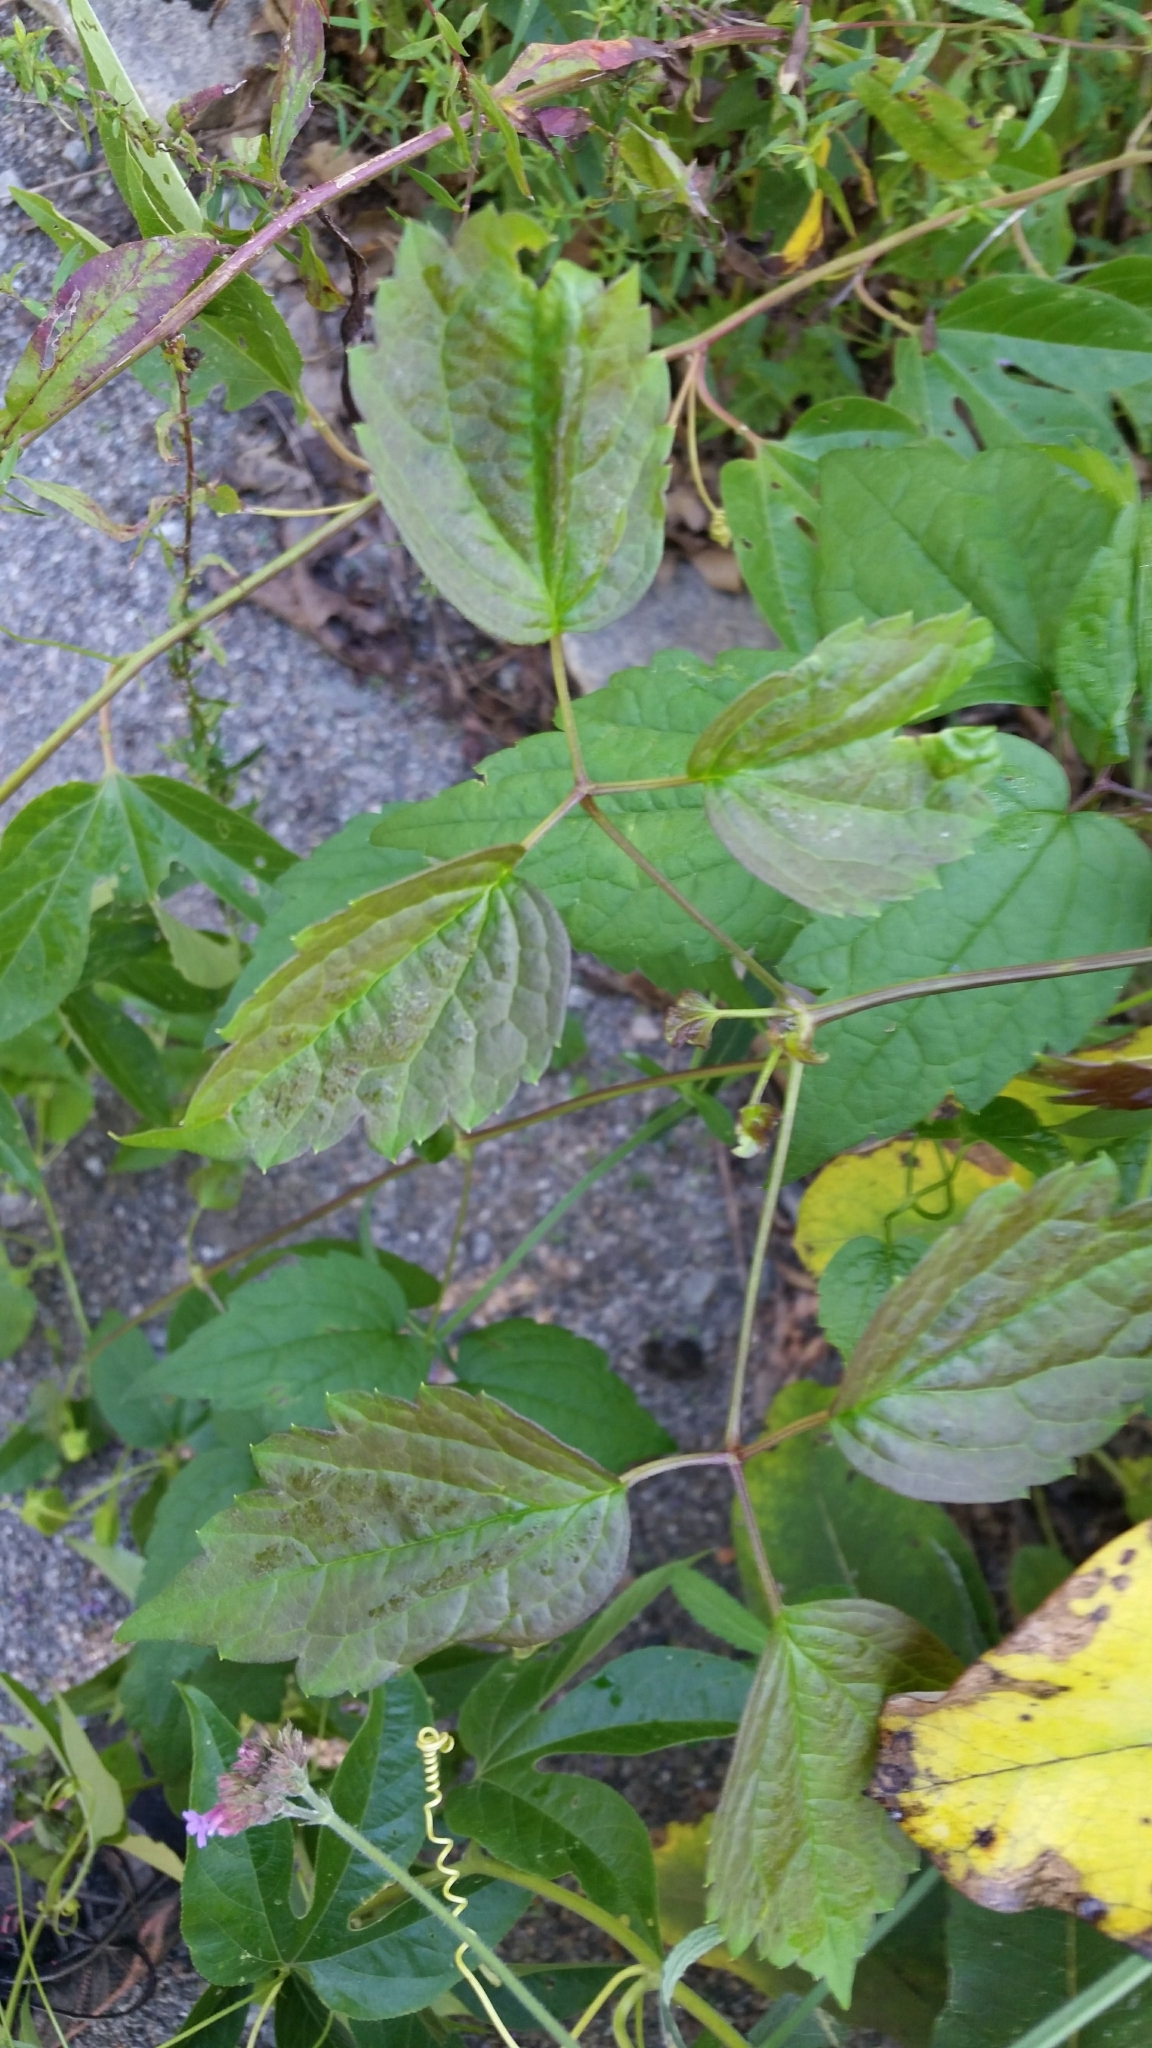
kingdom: Plantae
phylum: Tracheophyta
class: Magnoliopsida
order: Ranunculales
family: Ranunculaceae
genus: Clematis
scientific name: Clematis virginiana
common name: Virgin's-bower
